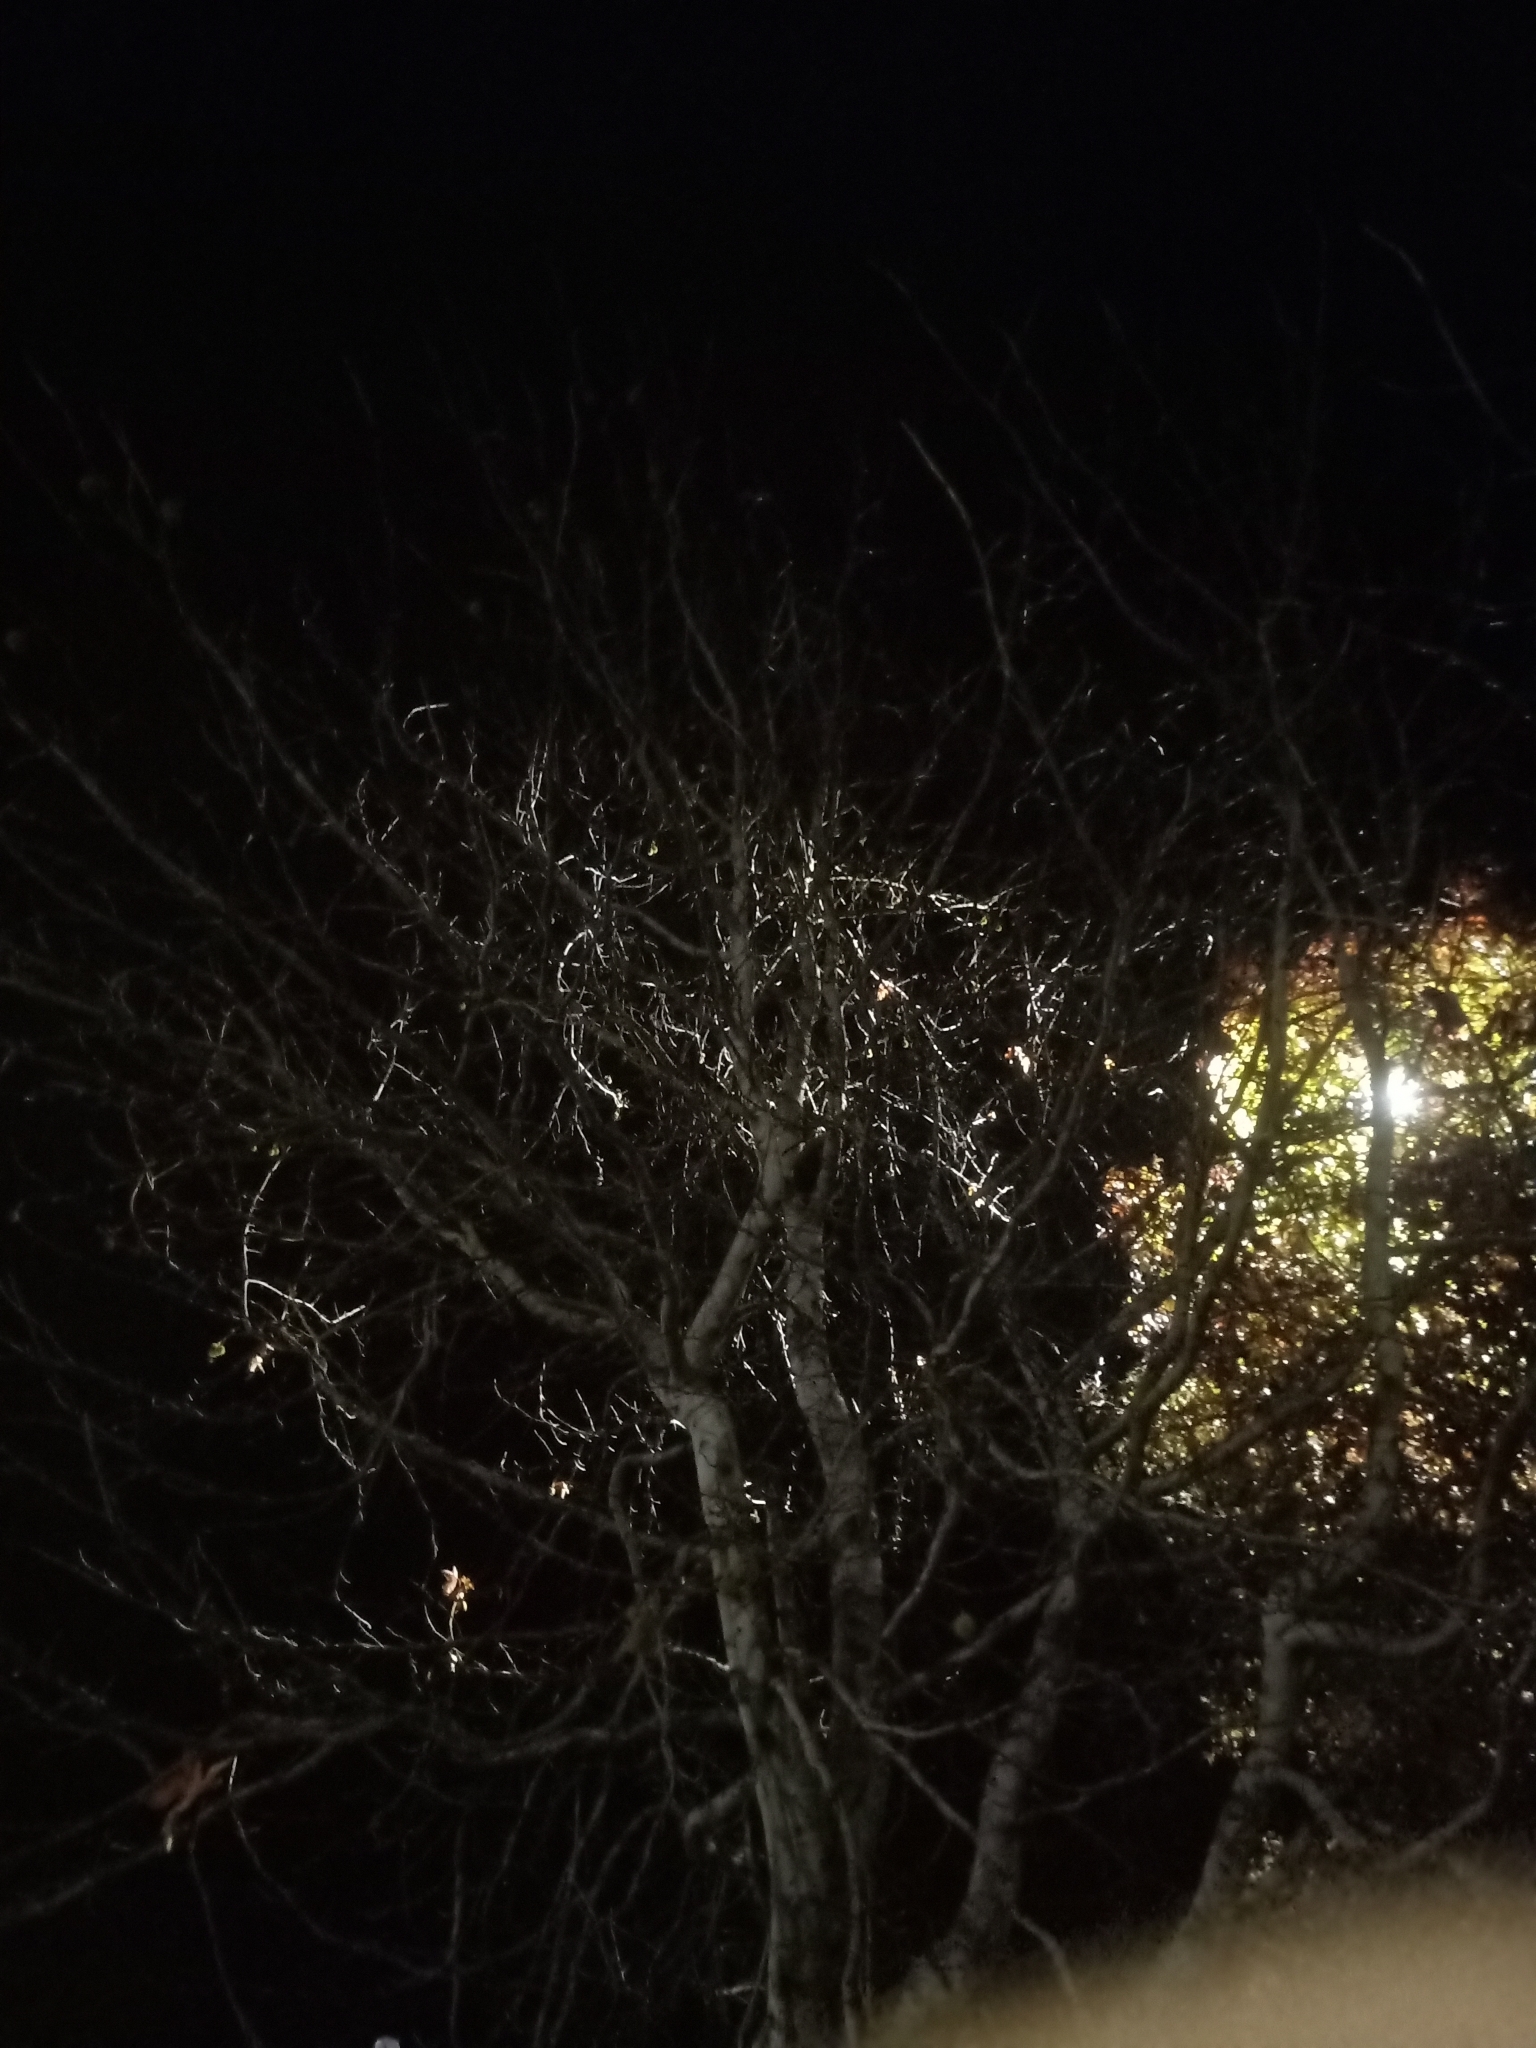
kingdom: Animalia
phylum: Chordata
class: Mammalia
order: Diprotodontia
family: Phalangeridae
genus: Trichosurus
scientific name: Trichosurus vulpecula
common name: Common brushtail
